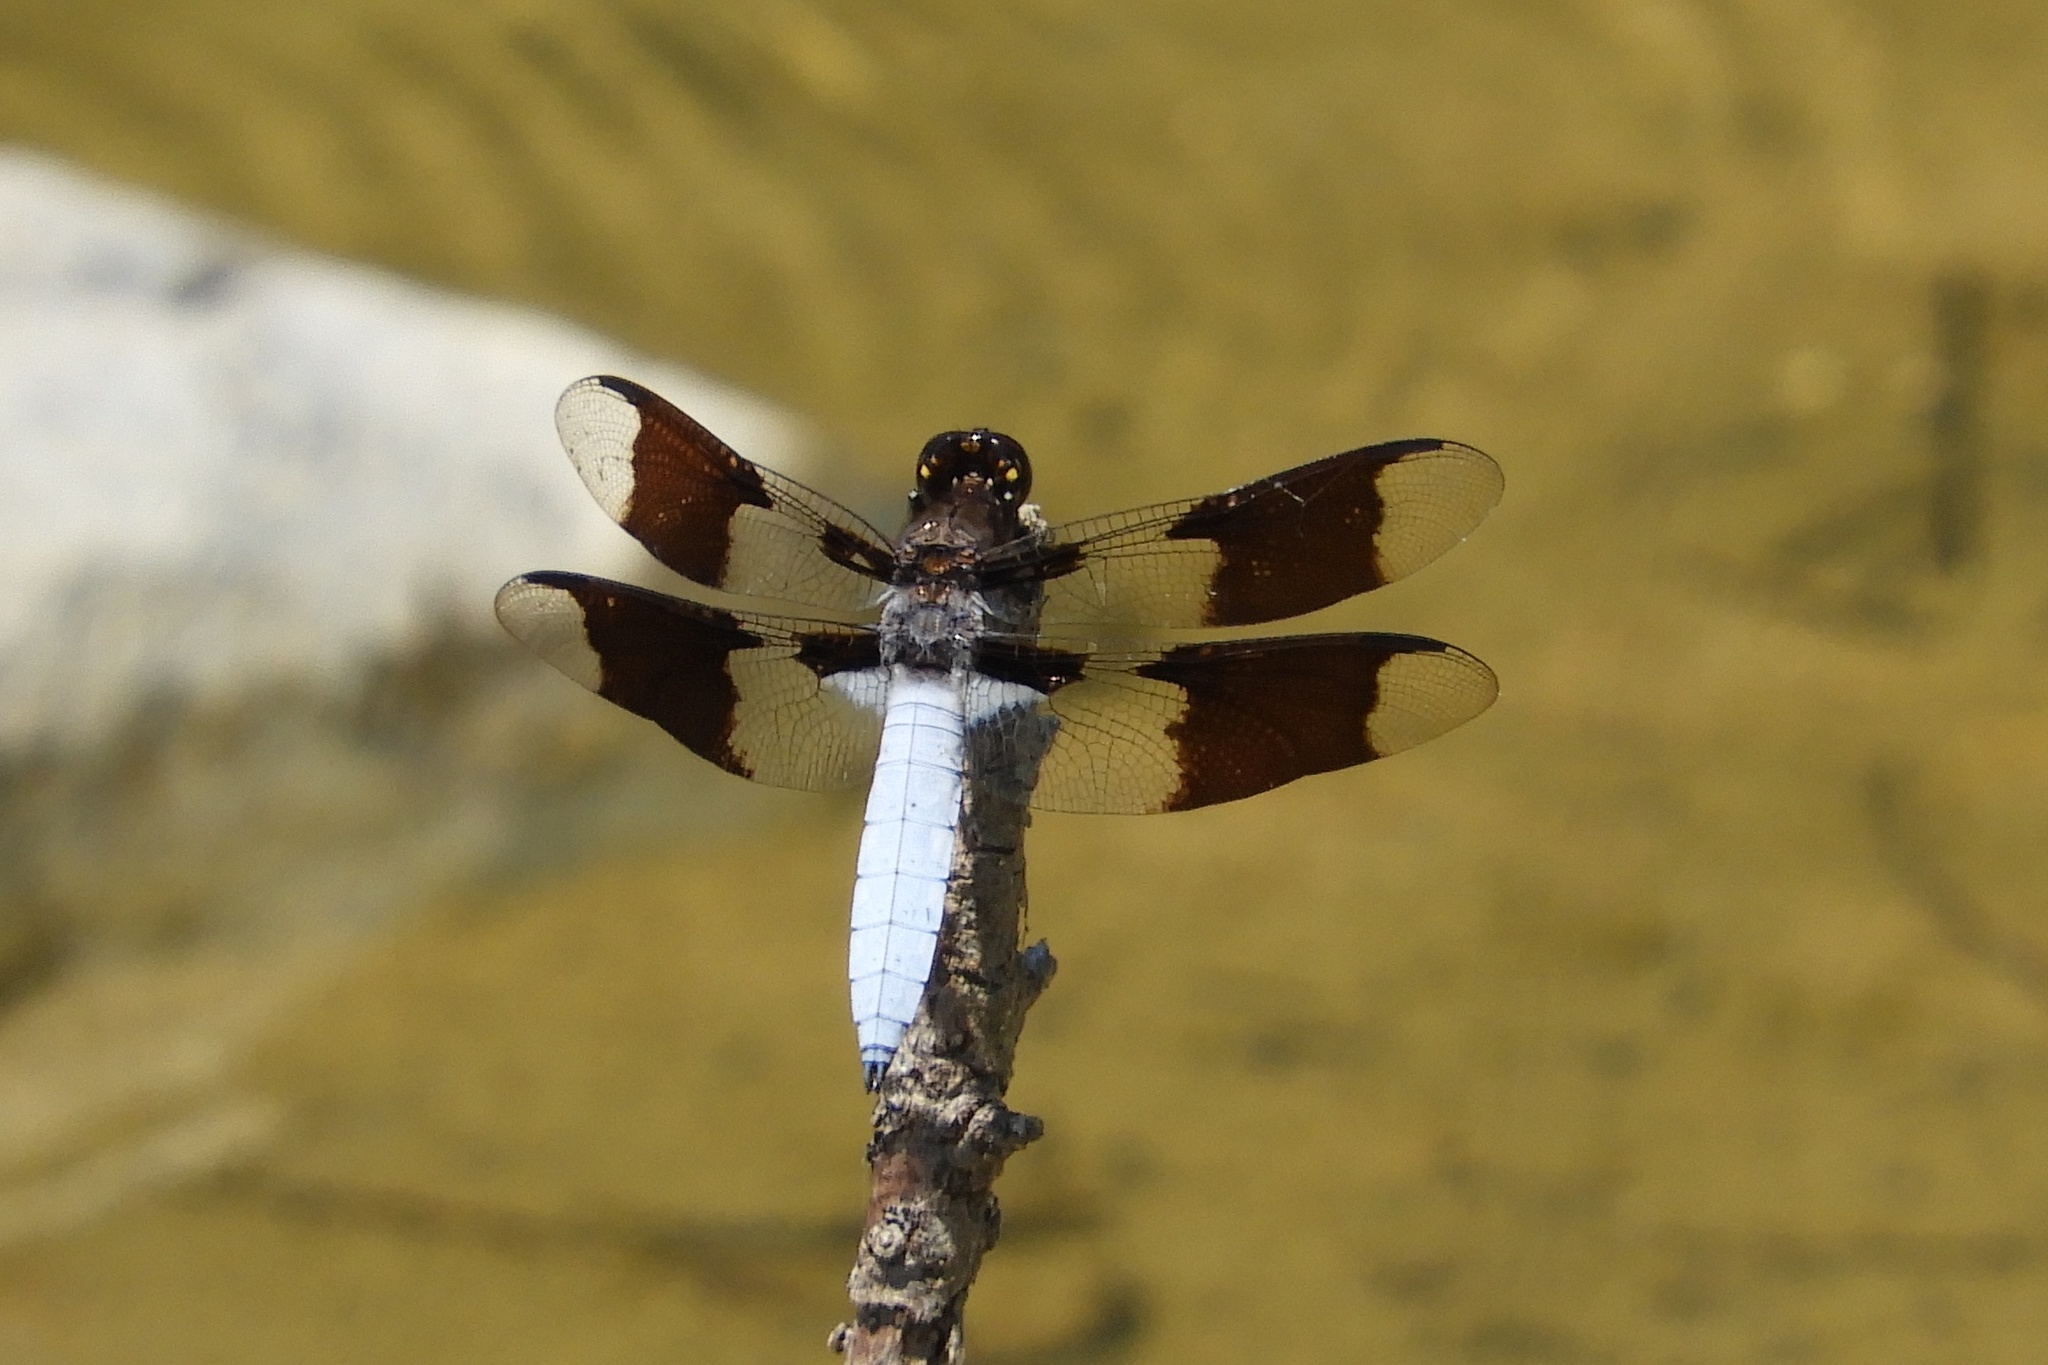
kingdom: Animalia
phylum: Arthropoda
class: Insecta
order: Odonata
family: Libellulidae
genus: Plathemis
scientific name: Plathemis lydia
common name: Common whitetail
